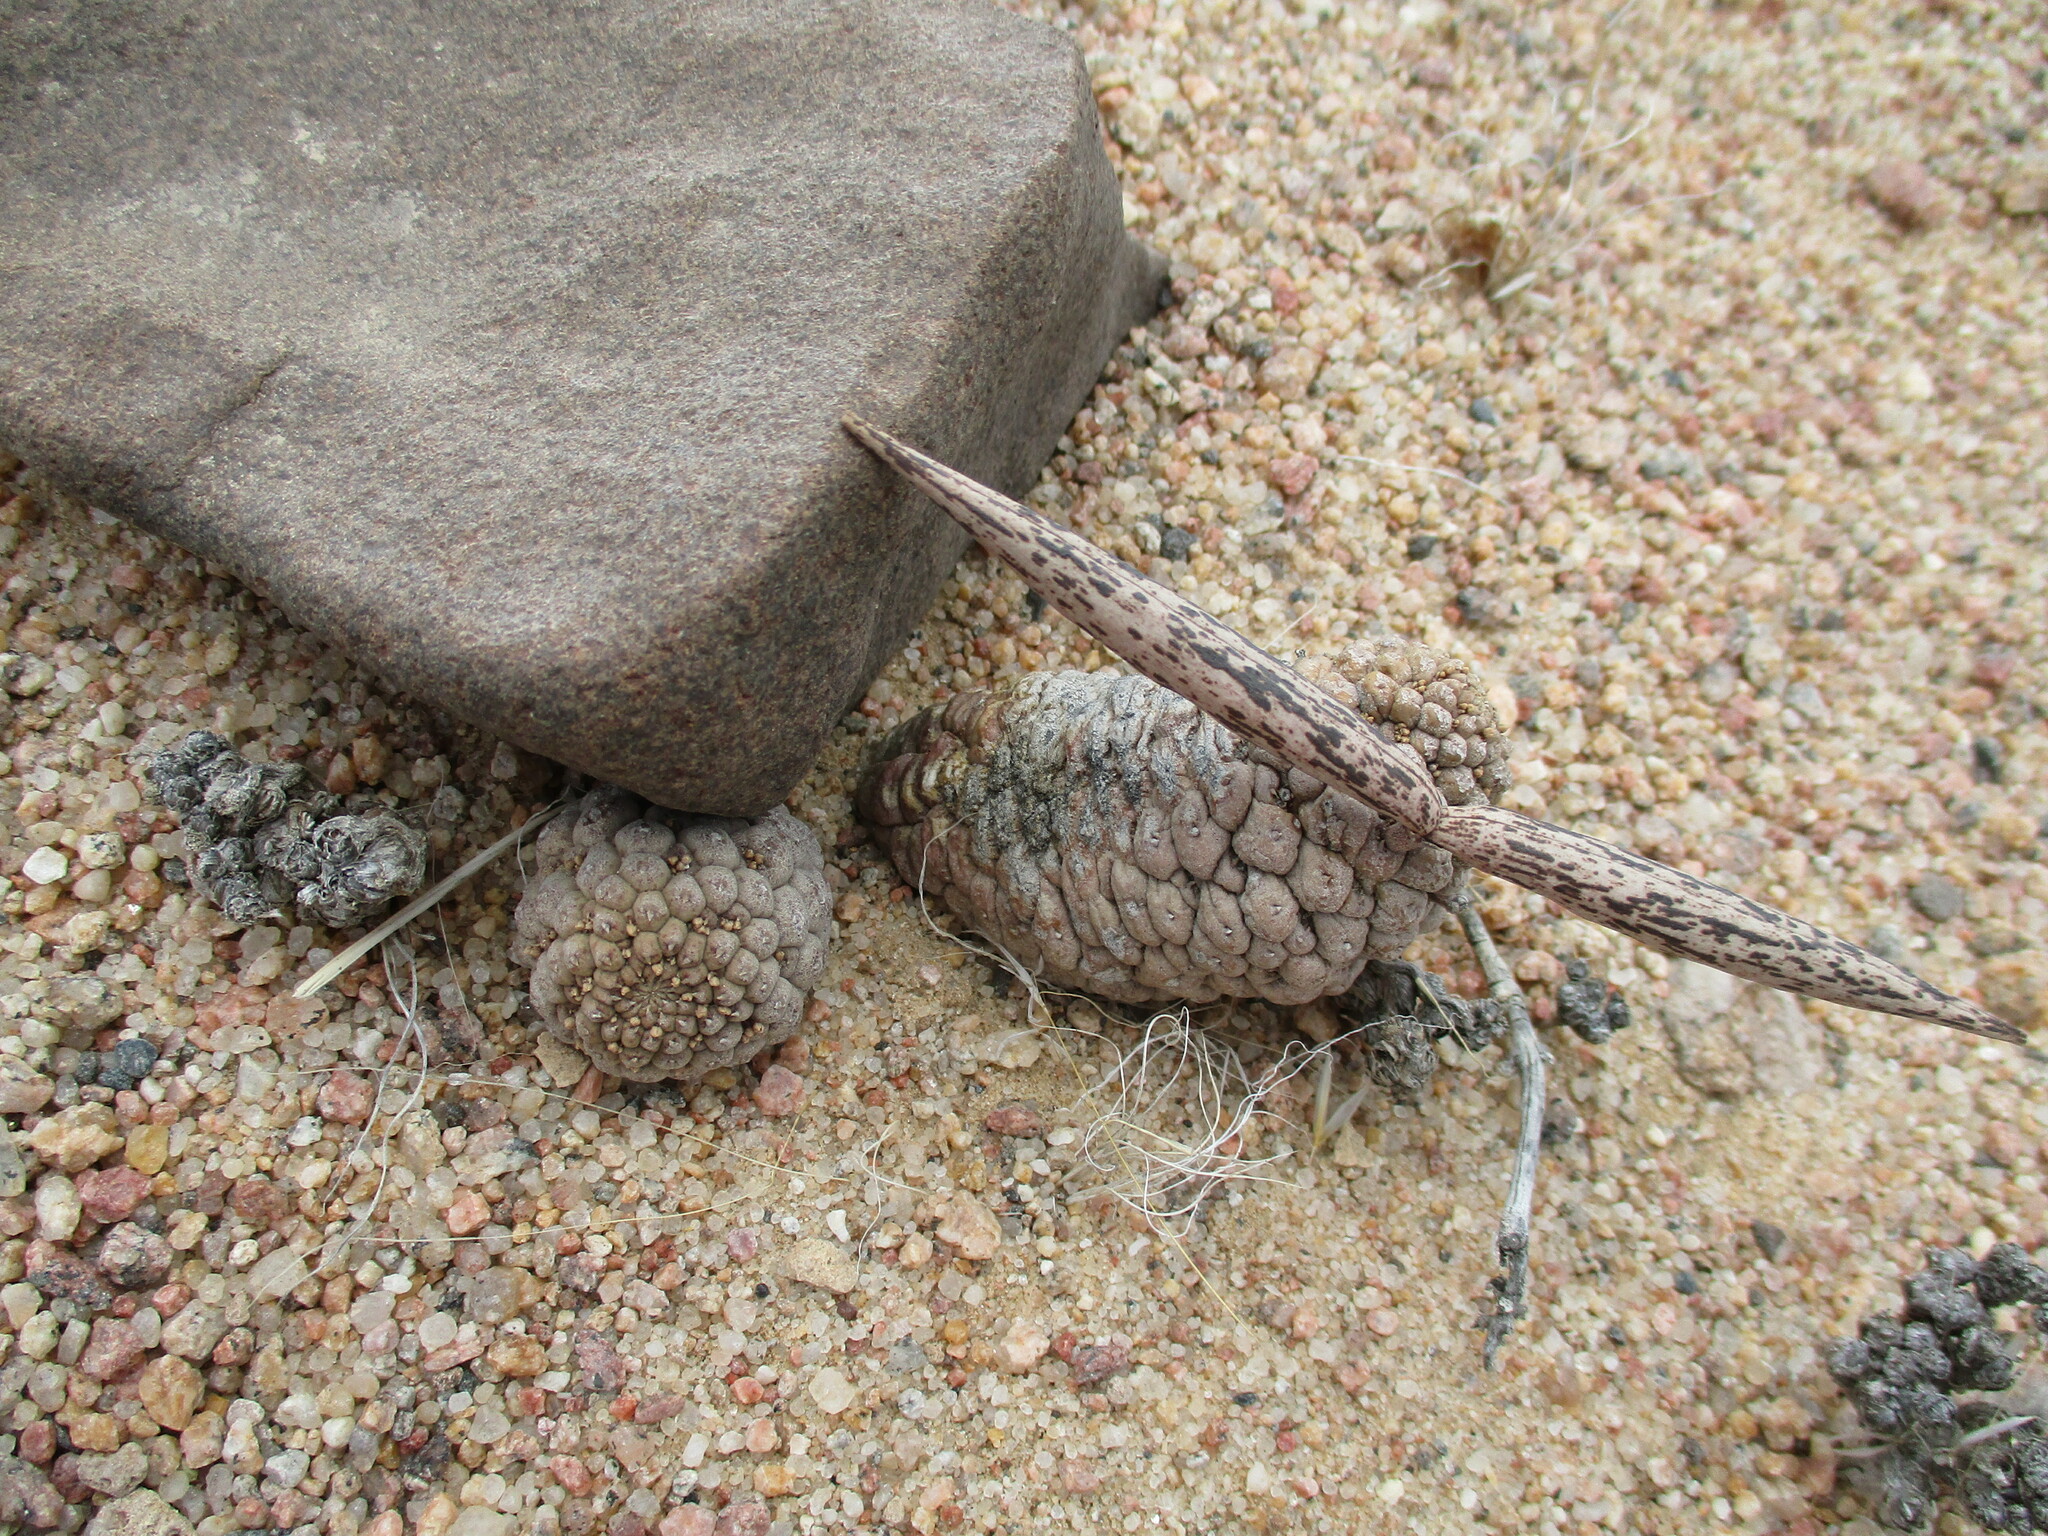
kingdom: Plantae
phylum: Tracheophyta
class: Magnoliopsida
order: Gentianales
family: Apocynaceae
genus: Ceropegia
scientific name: Ceropegia marlothii
